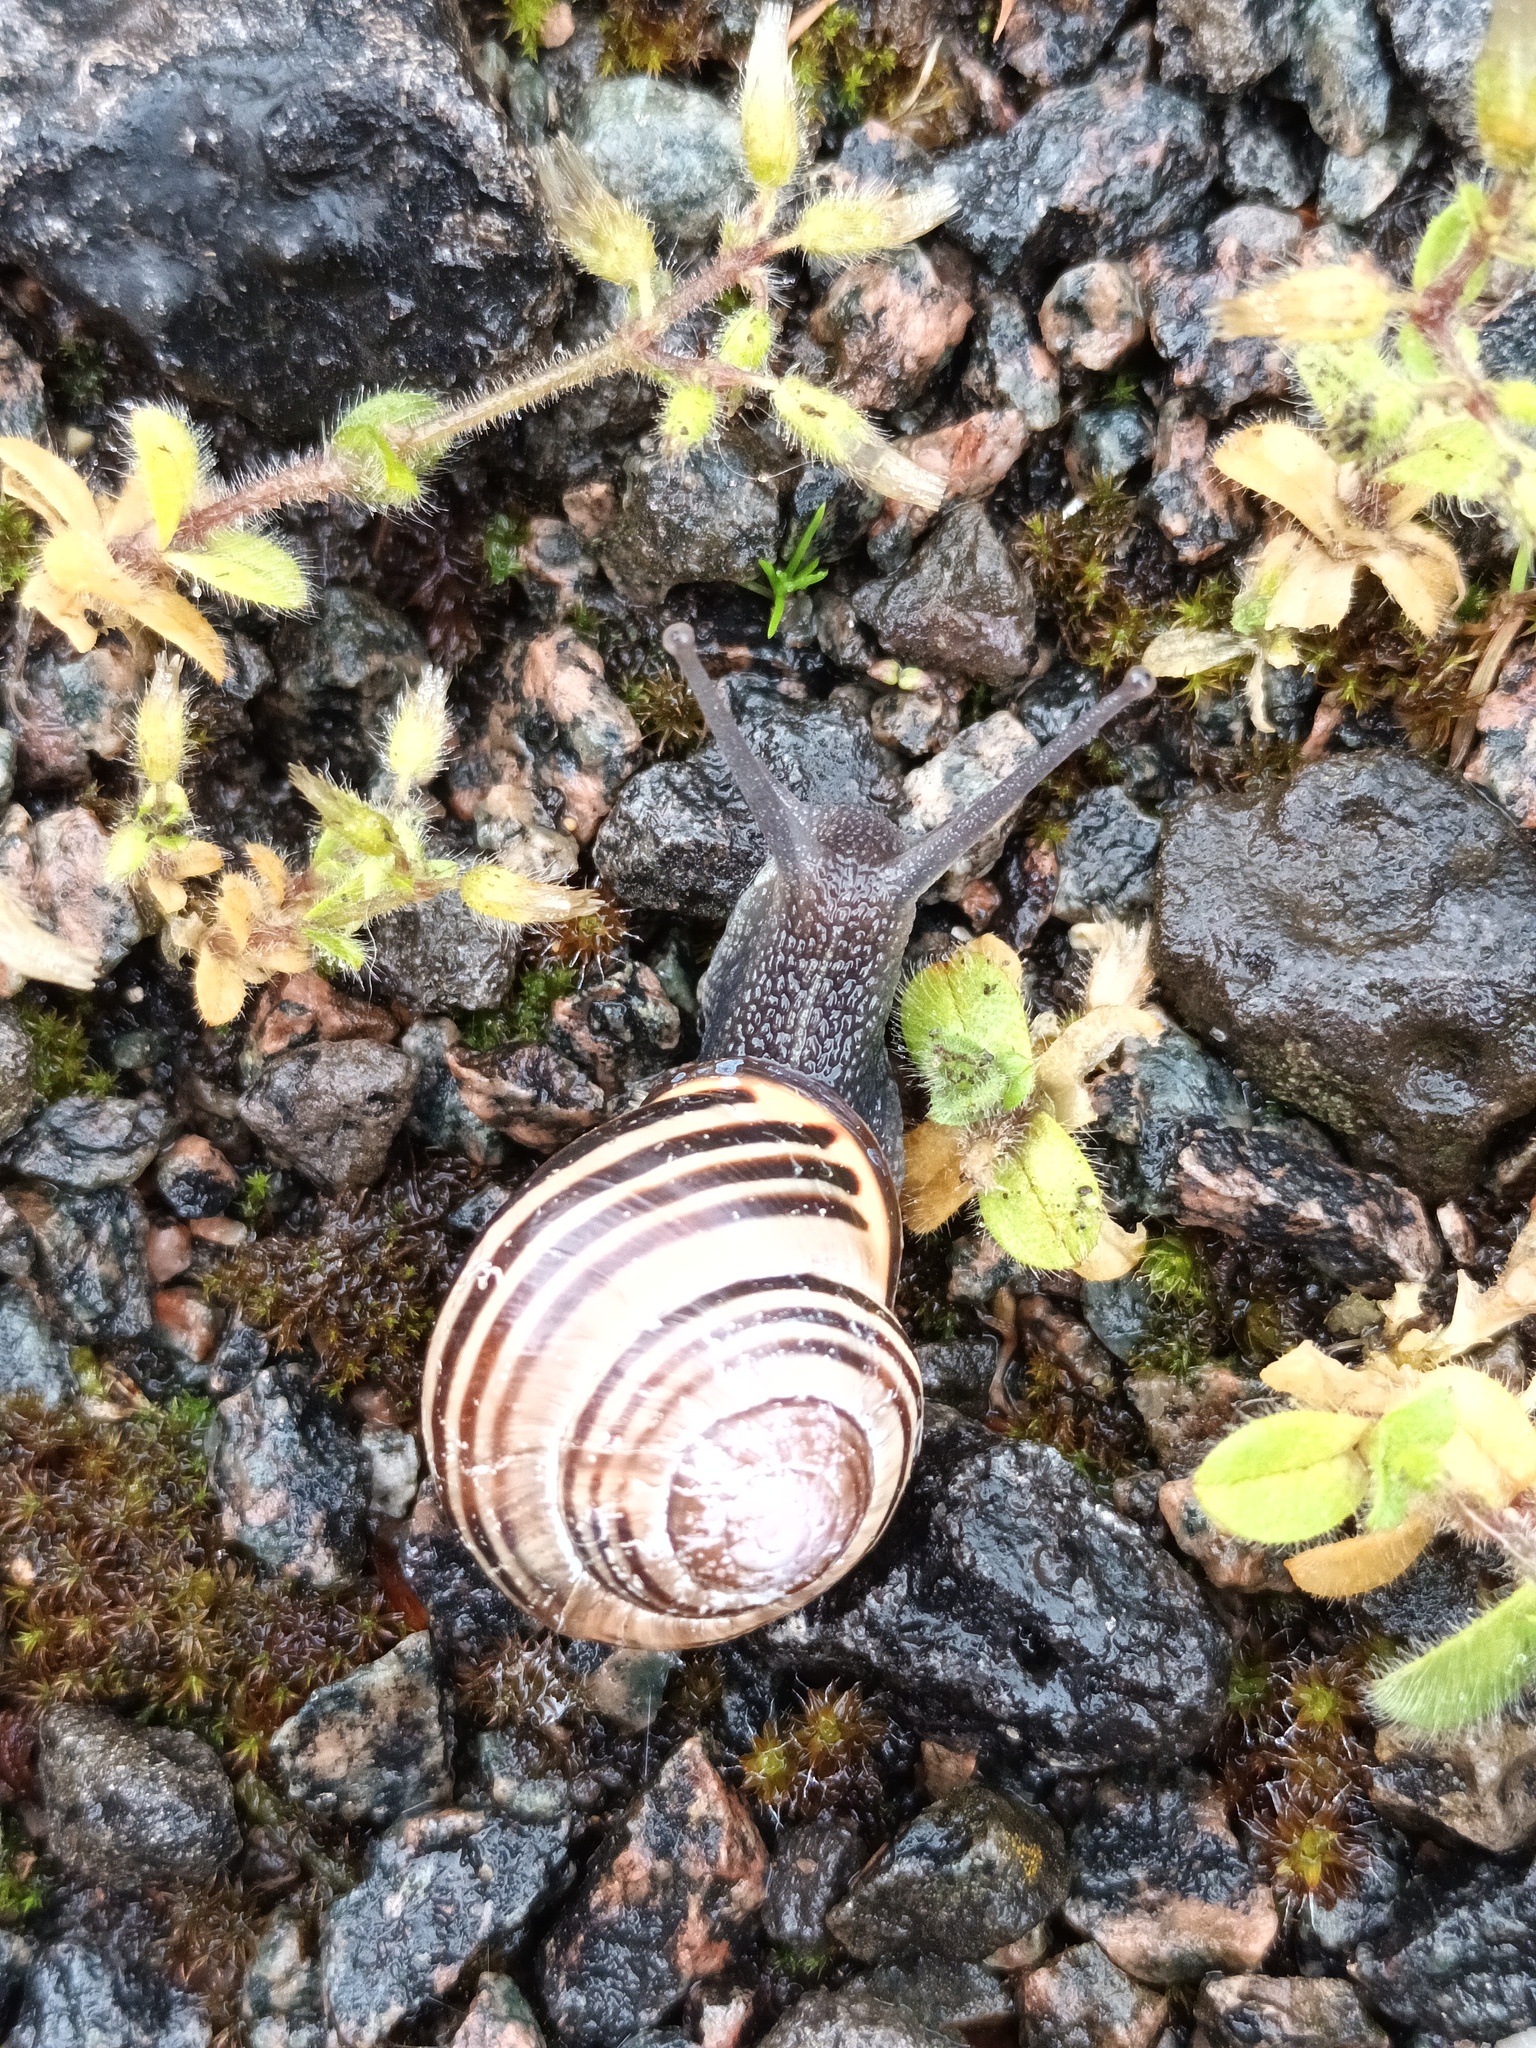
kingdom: Animalia
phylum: Mollusca
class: Gastropoda
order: Stylommatophora
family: Helicidae
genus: Cepaea
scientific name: Cepaea nemoralis
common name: Grovesnail
